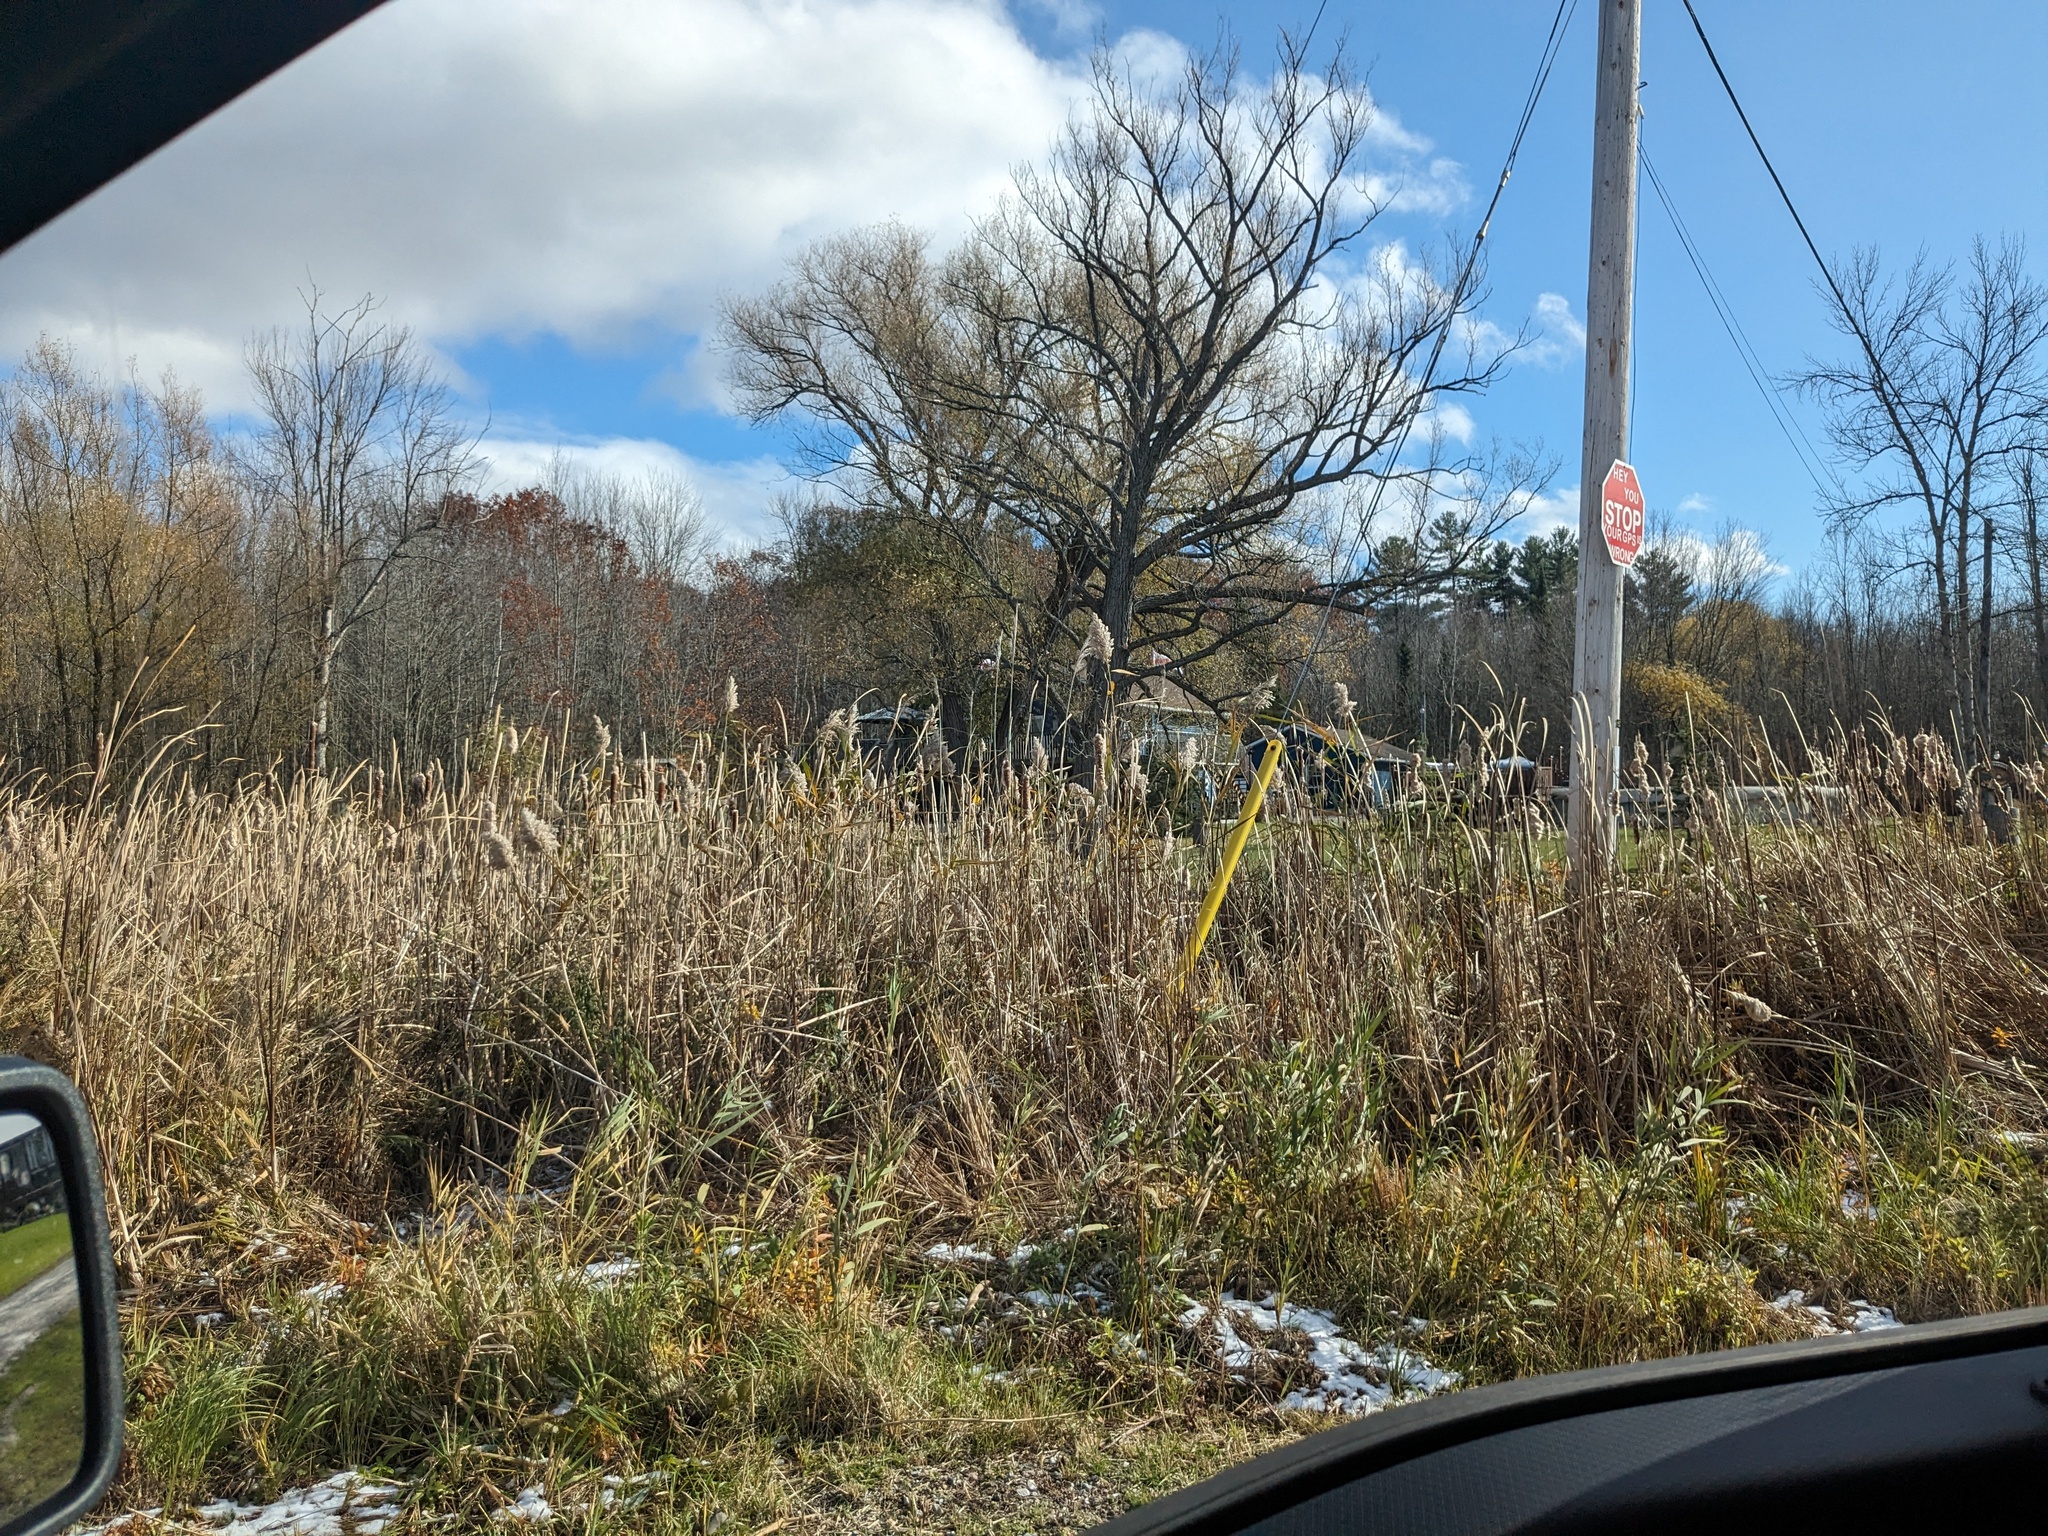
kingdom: Plantae
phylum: Tracheophyta
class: Liliopsida
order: Poales
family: Poaceae
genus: Phragmites
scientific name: Phragmites australis
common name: Common reed
